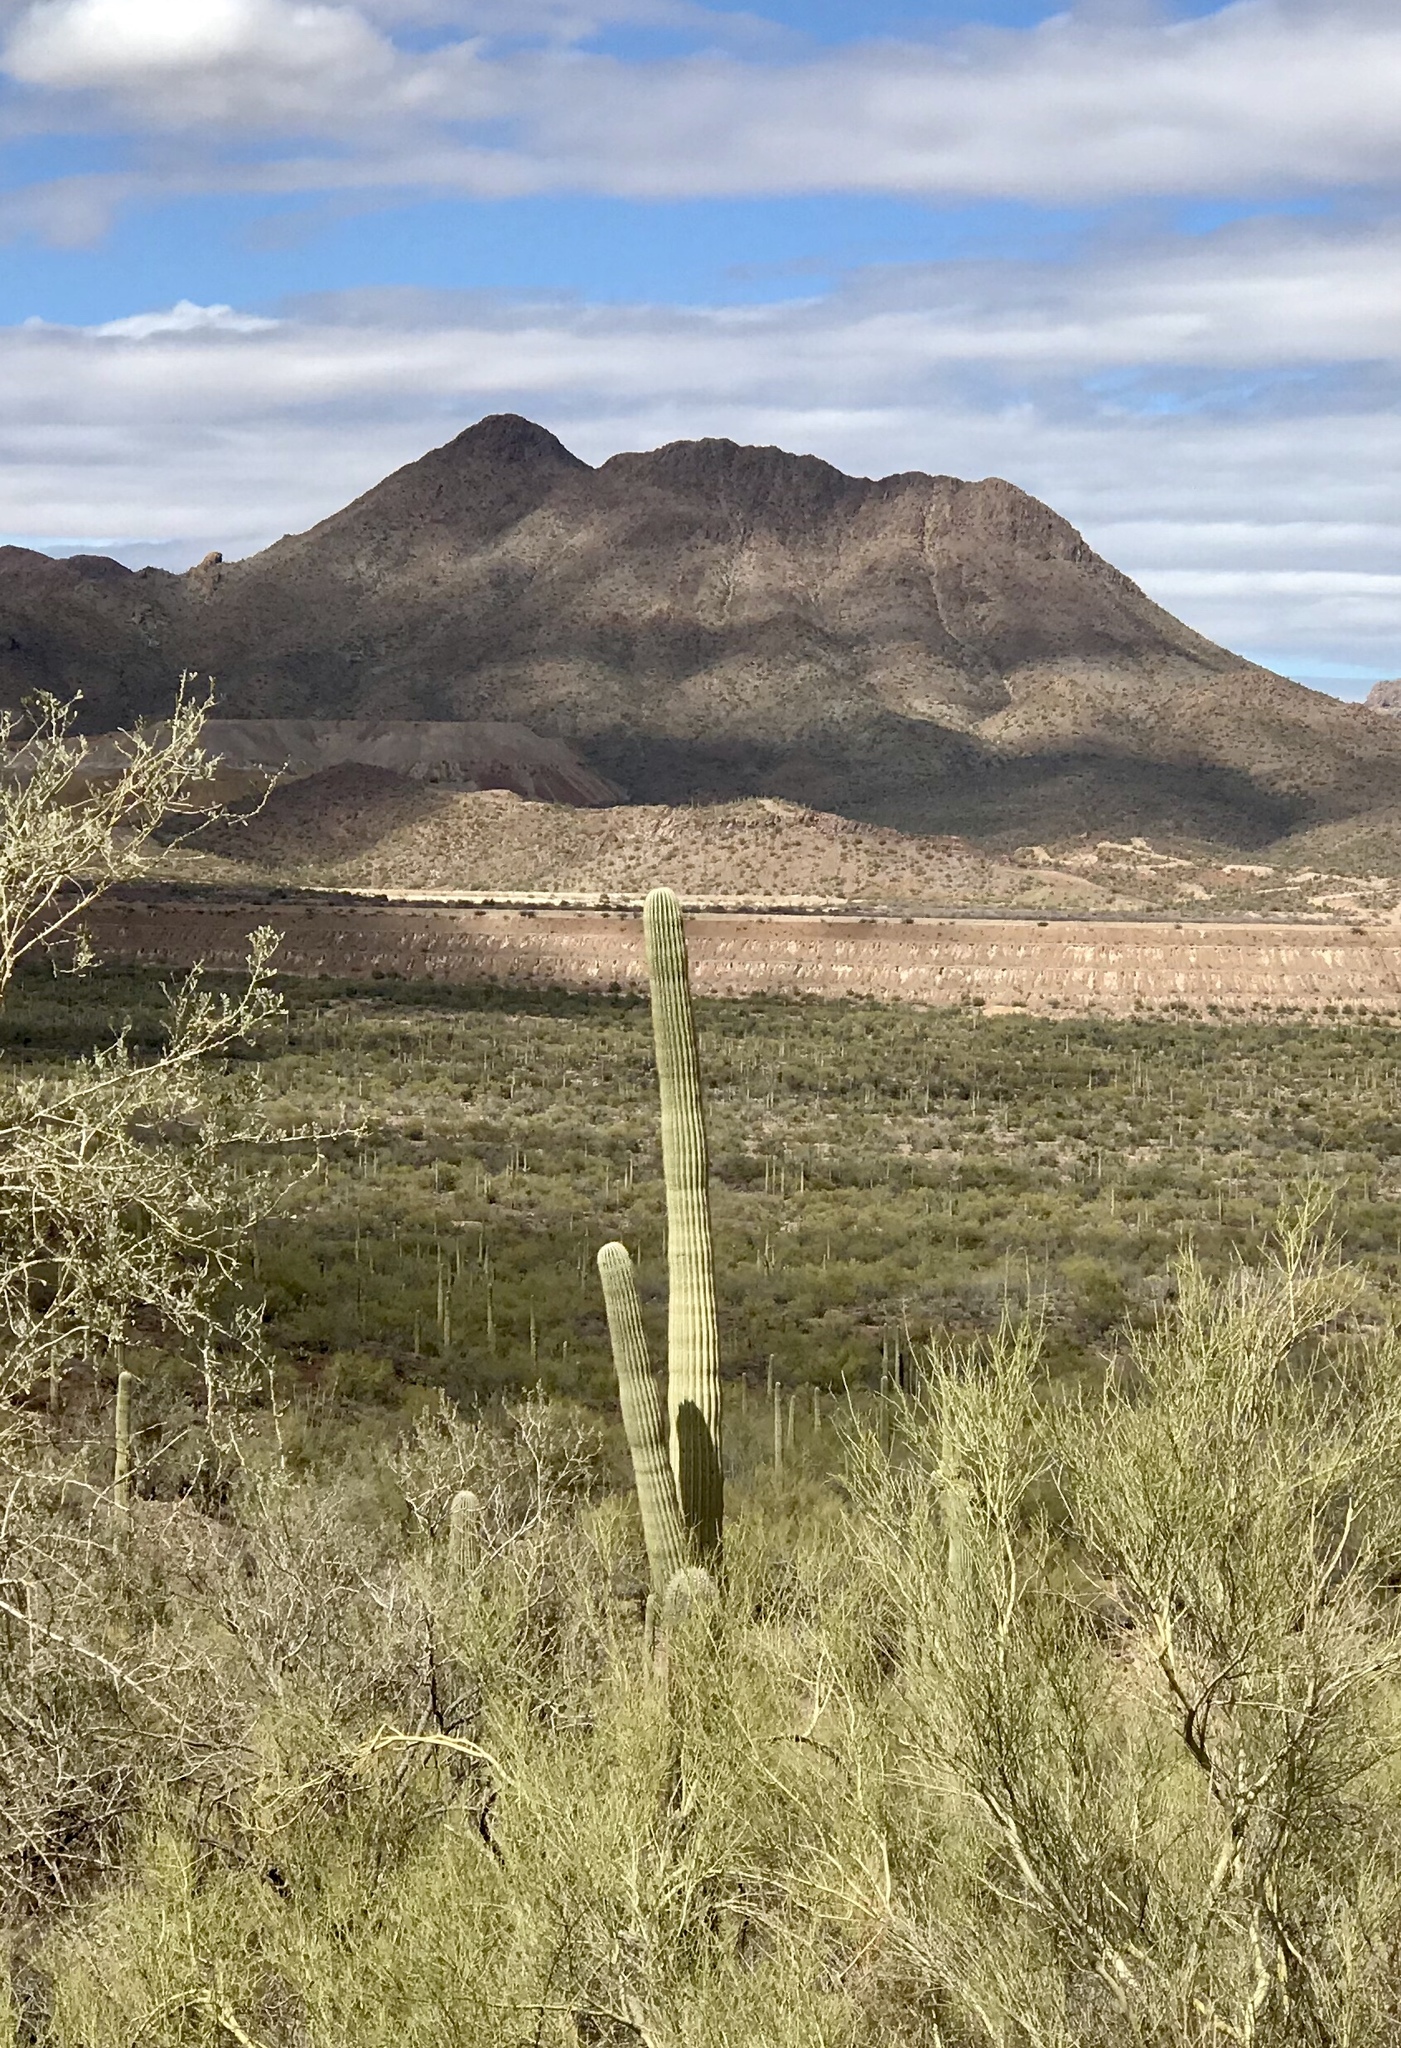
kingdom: Plantae
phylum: Tracheophyta
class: Magnoliopsida
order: Caryophyllales
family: Cactaceae
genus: Carnegiea
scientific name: Carnegiea gigantea
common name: Saguaro
